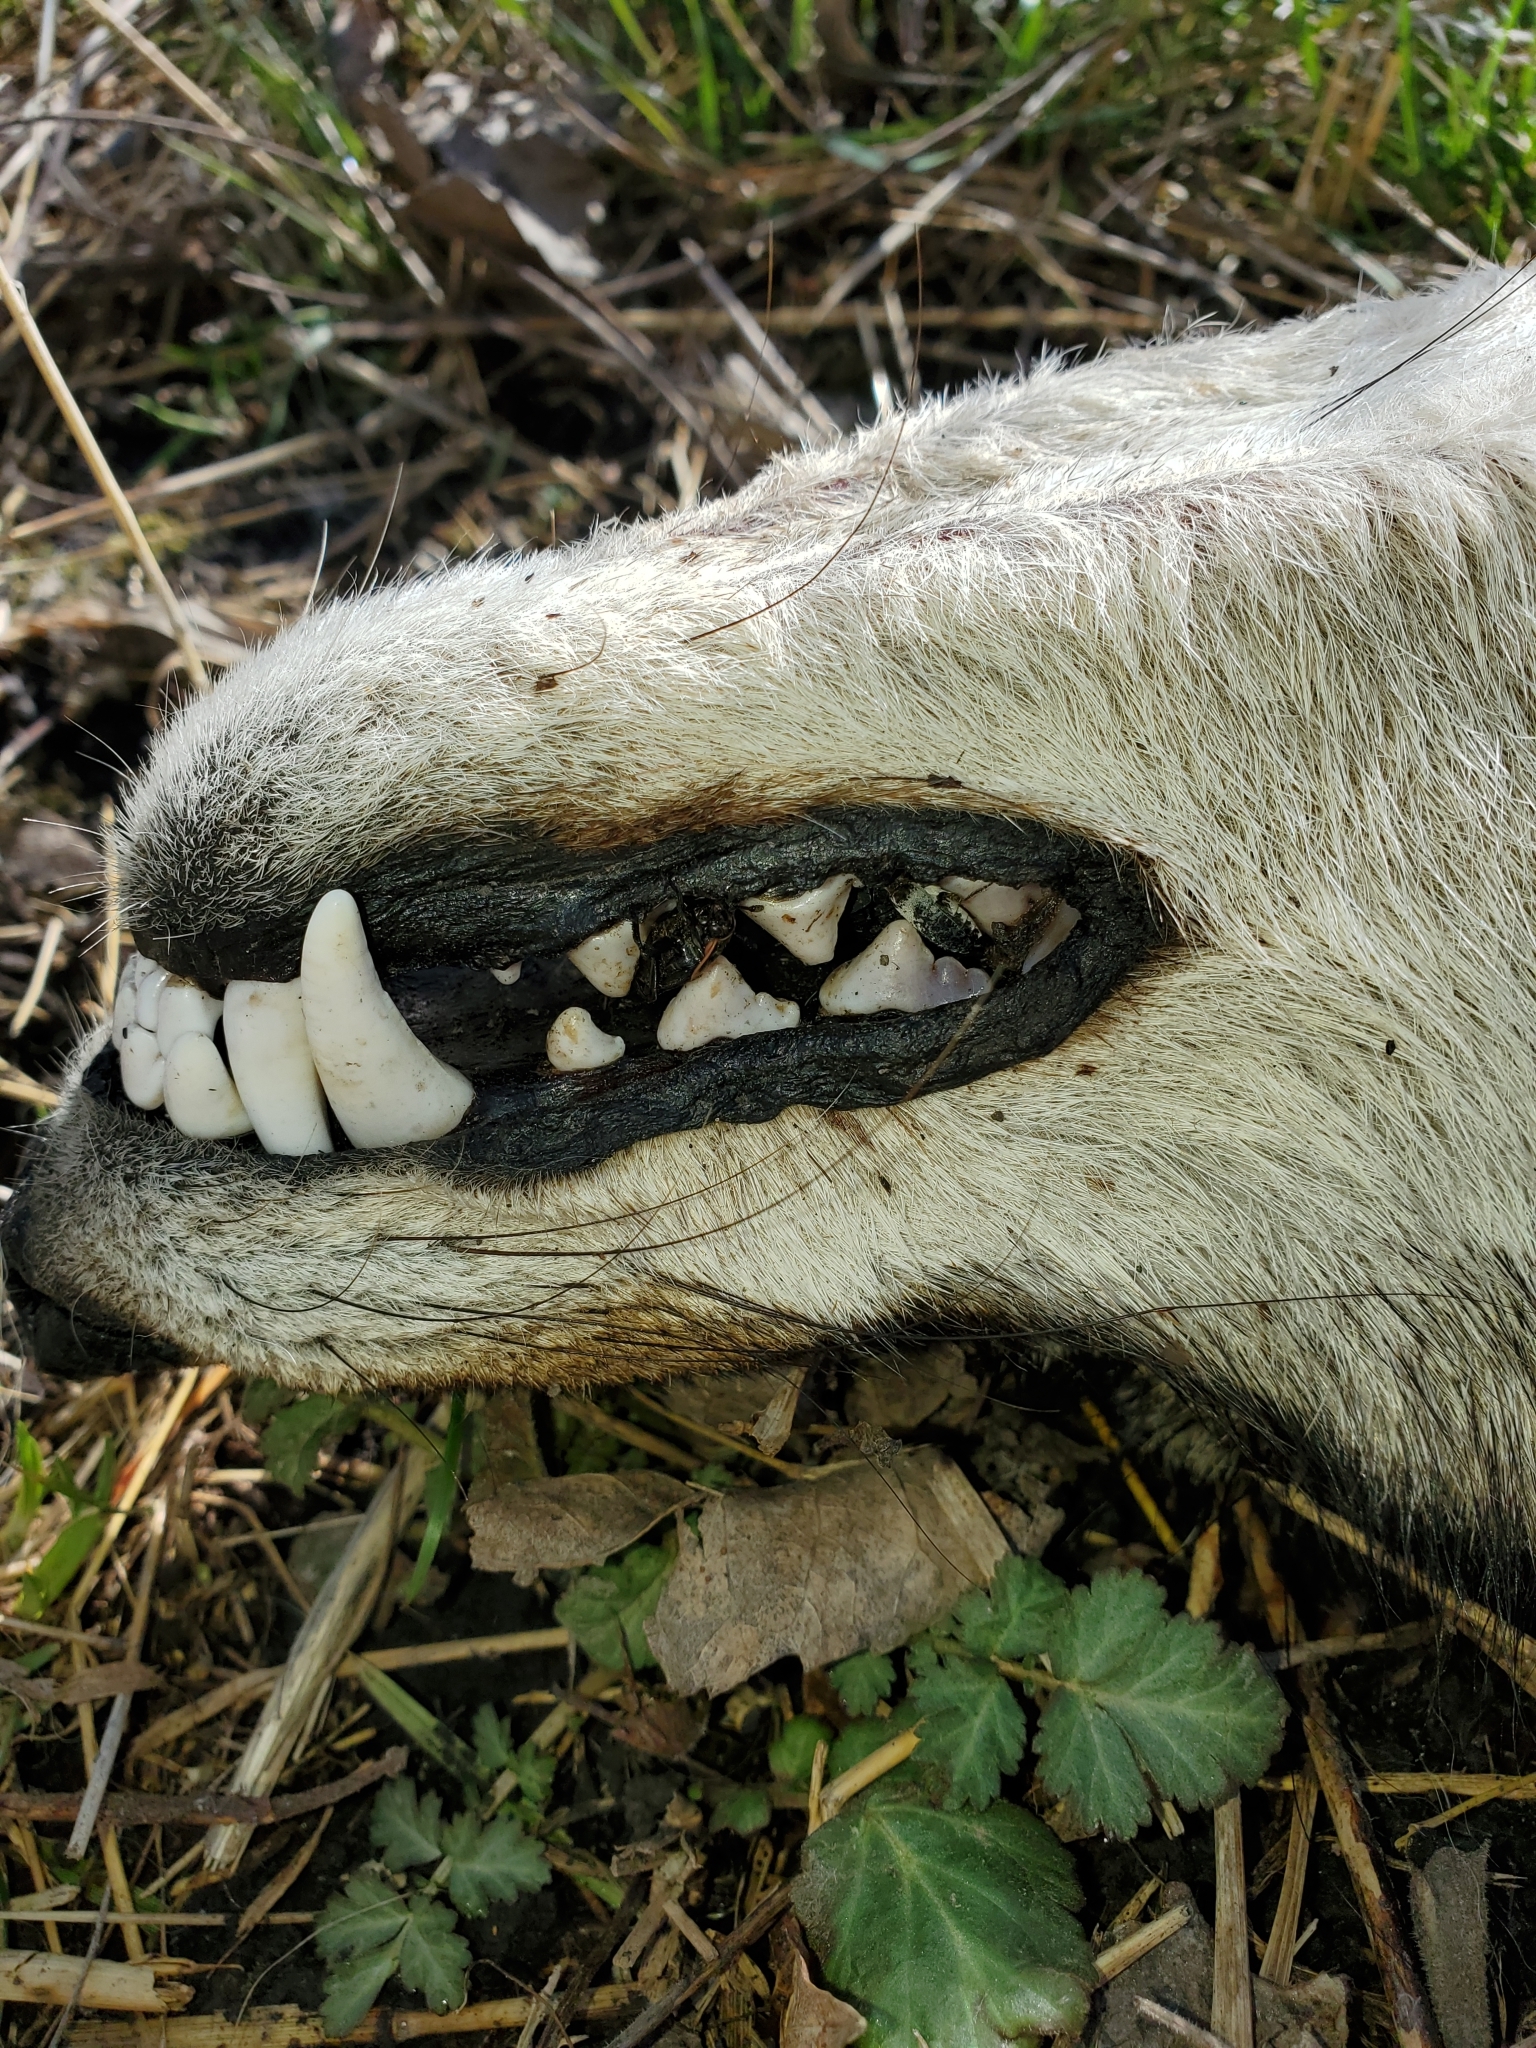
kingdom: Animalia
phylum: Arthropoda
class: Insecta
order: Coleoptera
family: Dermestidae
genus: Dermestes
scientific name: Dermestes fasciatus
